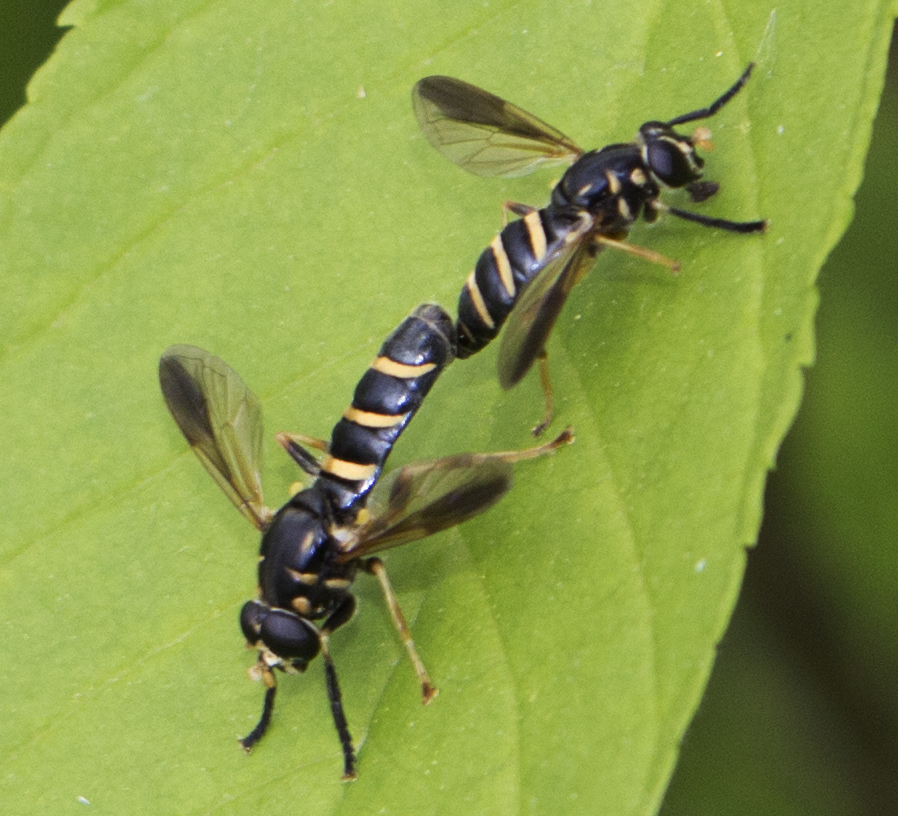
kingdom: Animalia
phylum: Arthropoda
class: Insecta
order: Diptera
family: Syrphidae
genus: Temnostoma
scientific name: Temnostoma balyras
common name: Yellow-haired falsehorn
